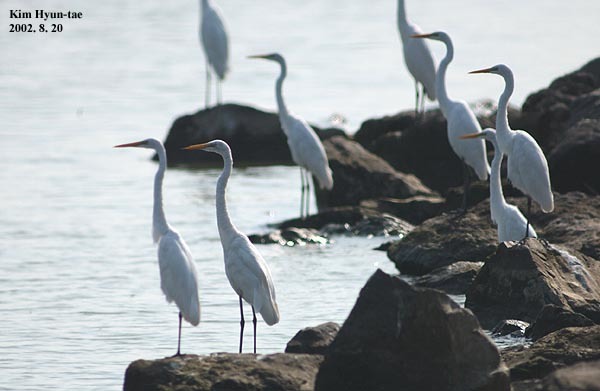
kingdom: Animalia
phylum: Chordata
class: Aves
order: Pelecaniformes
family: Ardeidae
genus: Ardea
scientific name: Ardea modesta
